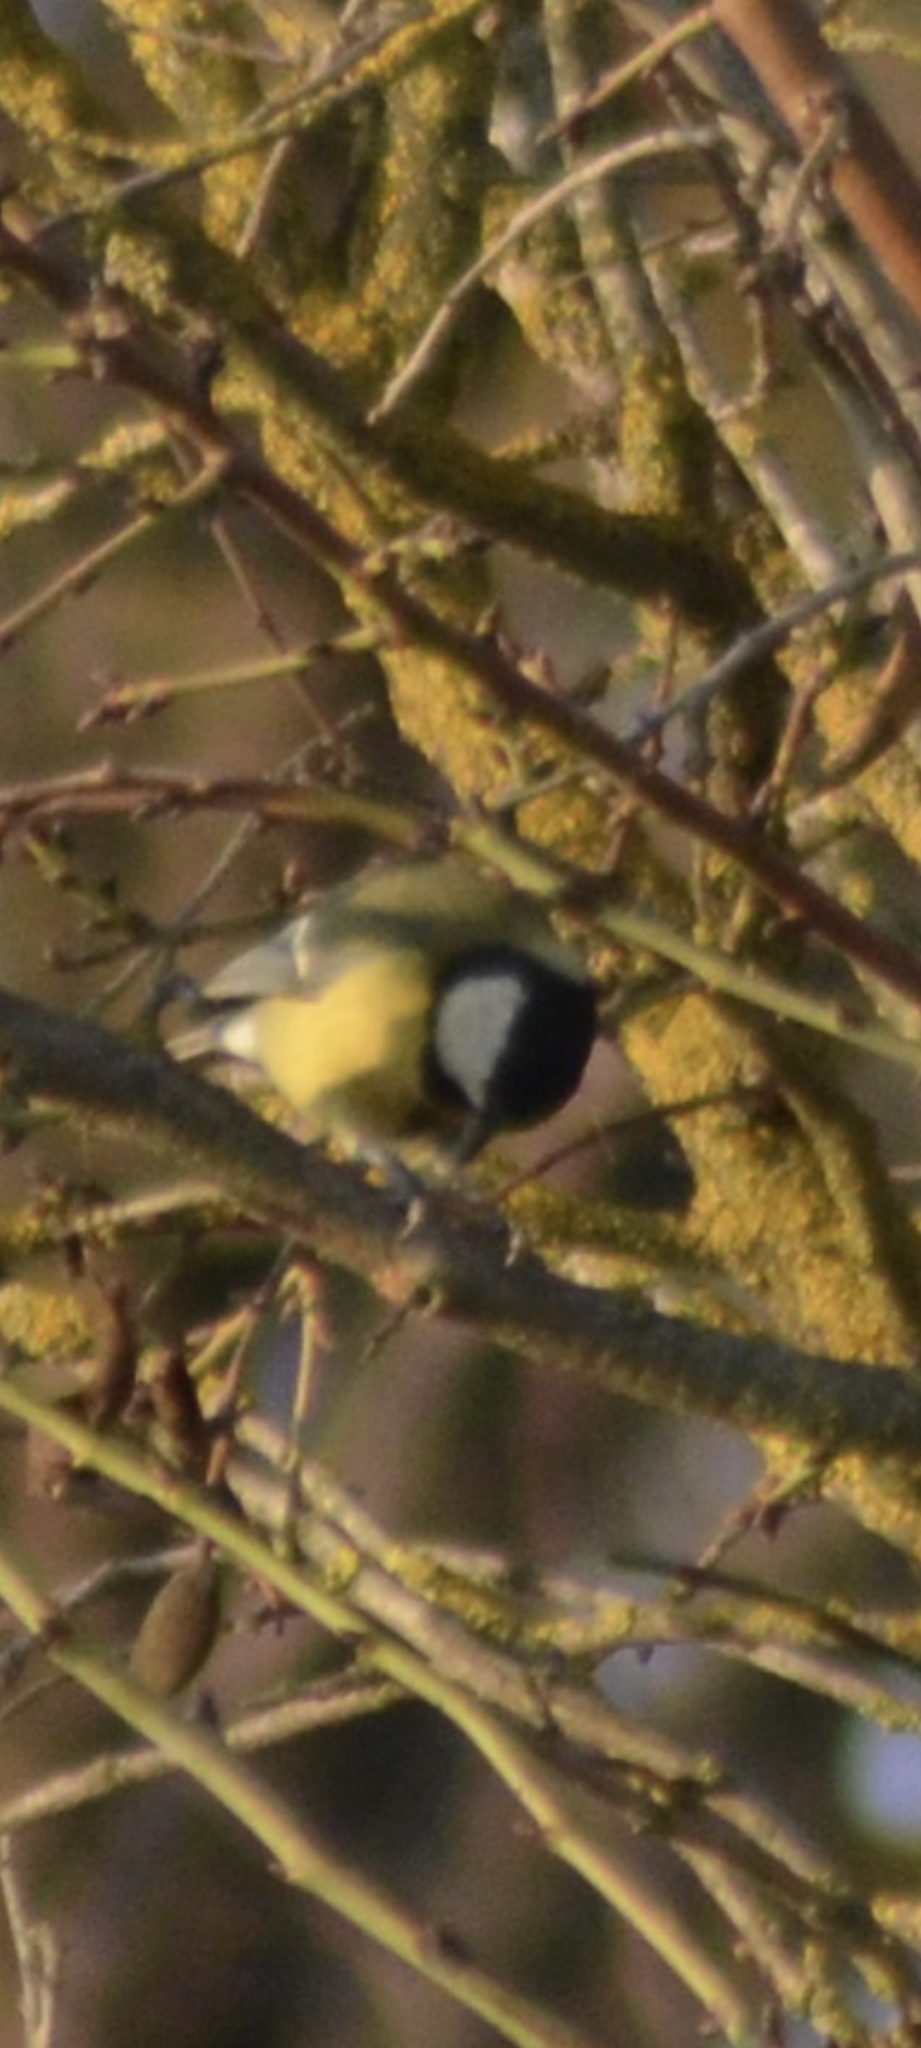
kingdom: Animalia
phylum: Chordata
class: Aves
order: Passeriformes
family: Paridae
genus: Parus
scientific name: Parus major
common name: Great tit
